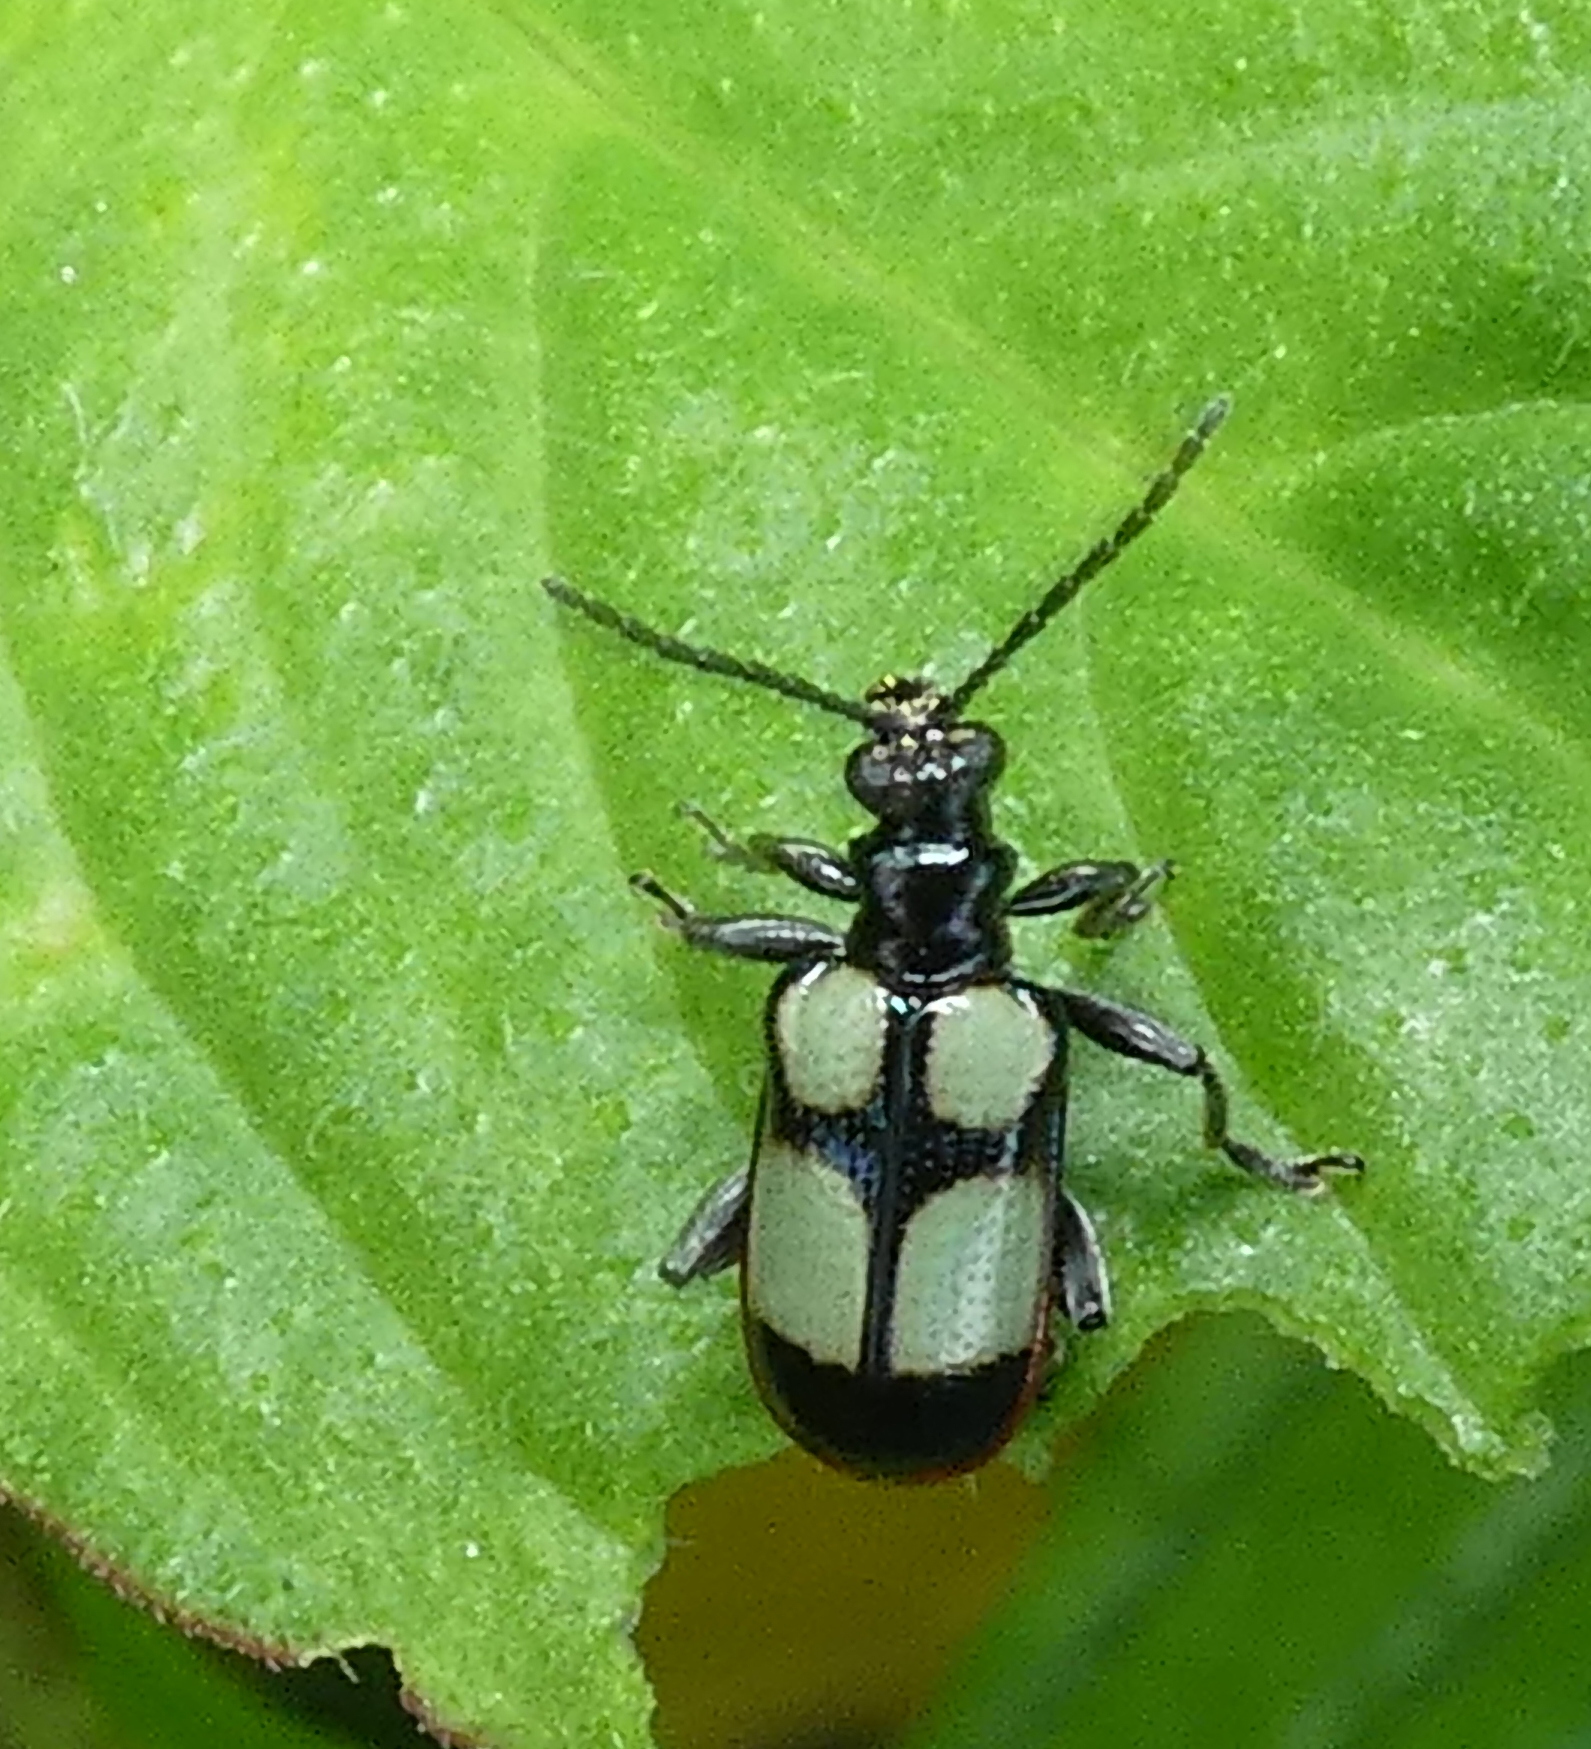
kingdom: Animalia
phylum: Arthropoda
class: Insecta
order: Coleoptera
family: Chrysomelidae
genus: Neolema
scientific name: Neolema
